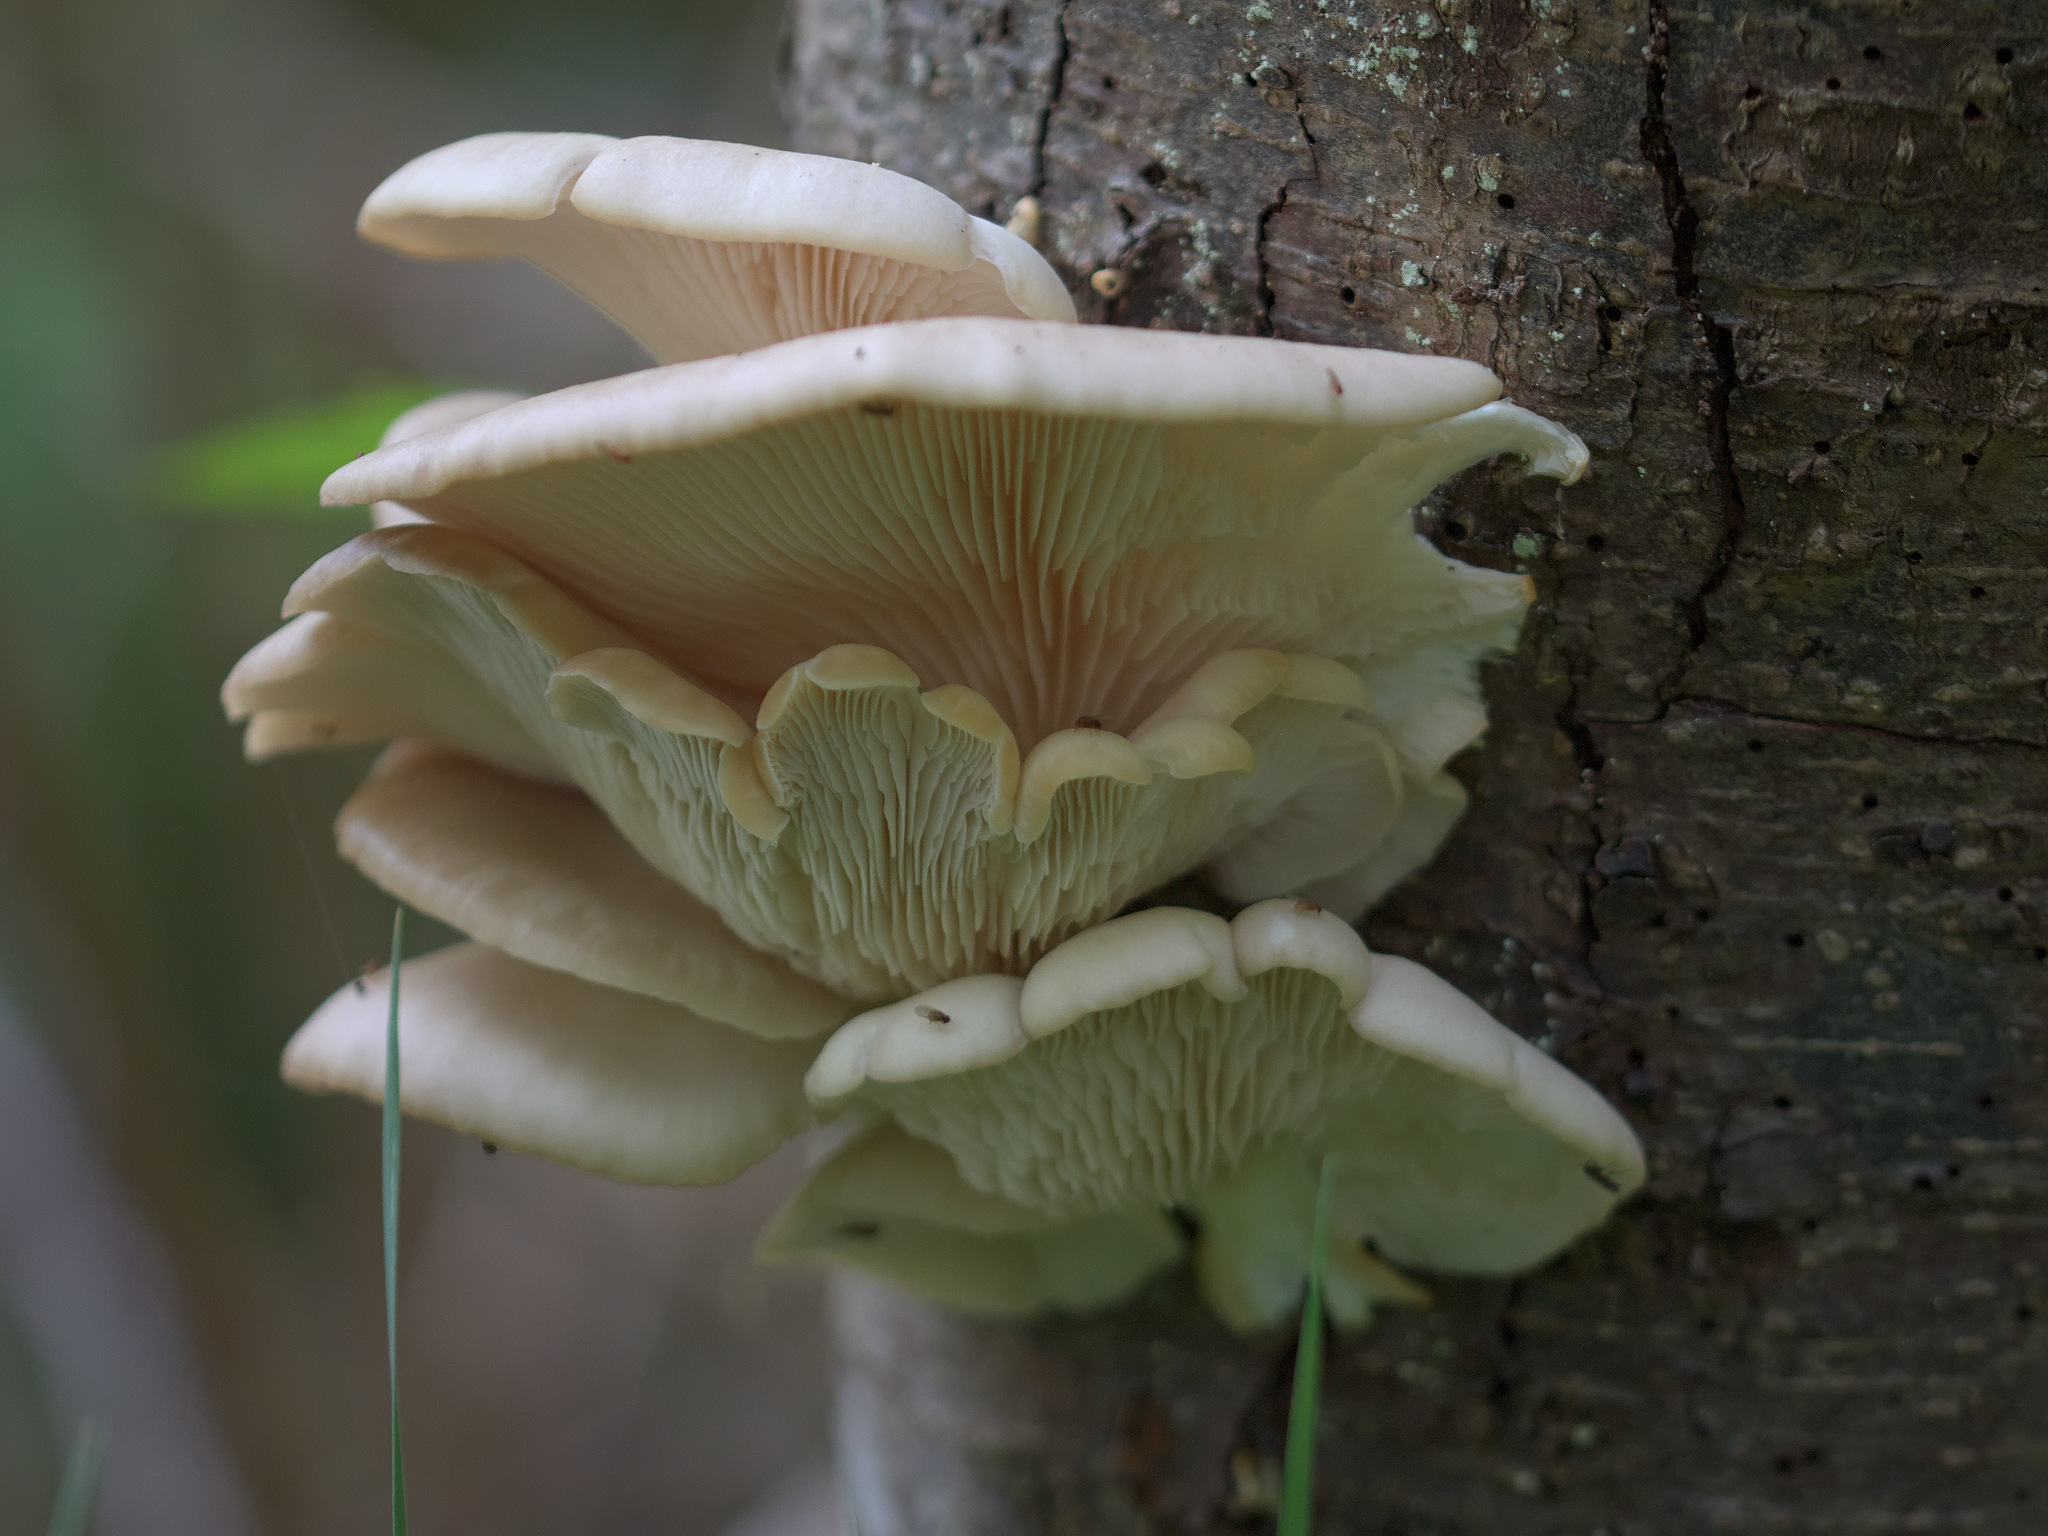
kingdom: Fungi
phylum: Basidiomycota
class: Agaricomycetes
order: Agaricales
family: Pleurotaceae
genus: Pleurotus
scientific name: Pleurotus pulmonarius
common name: Pale oyster
